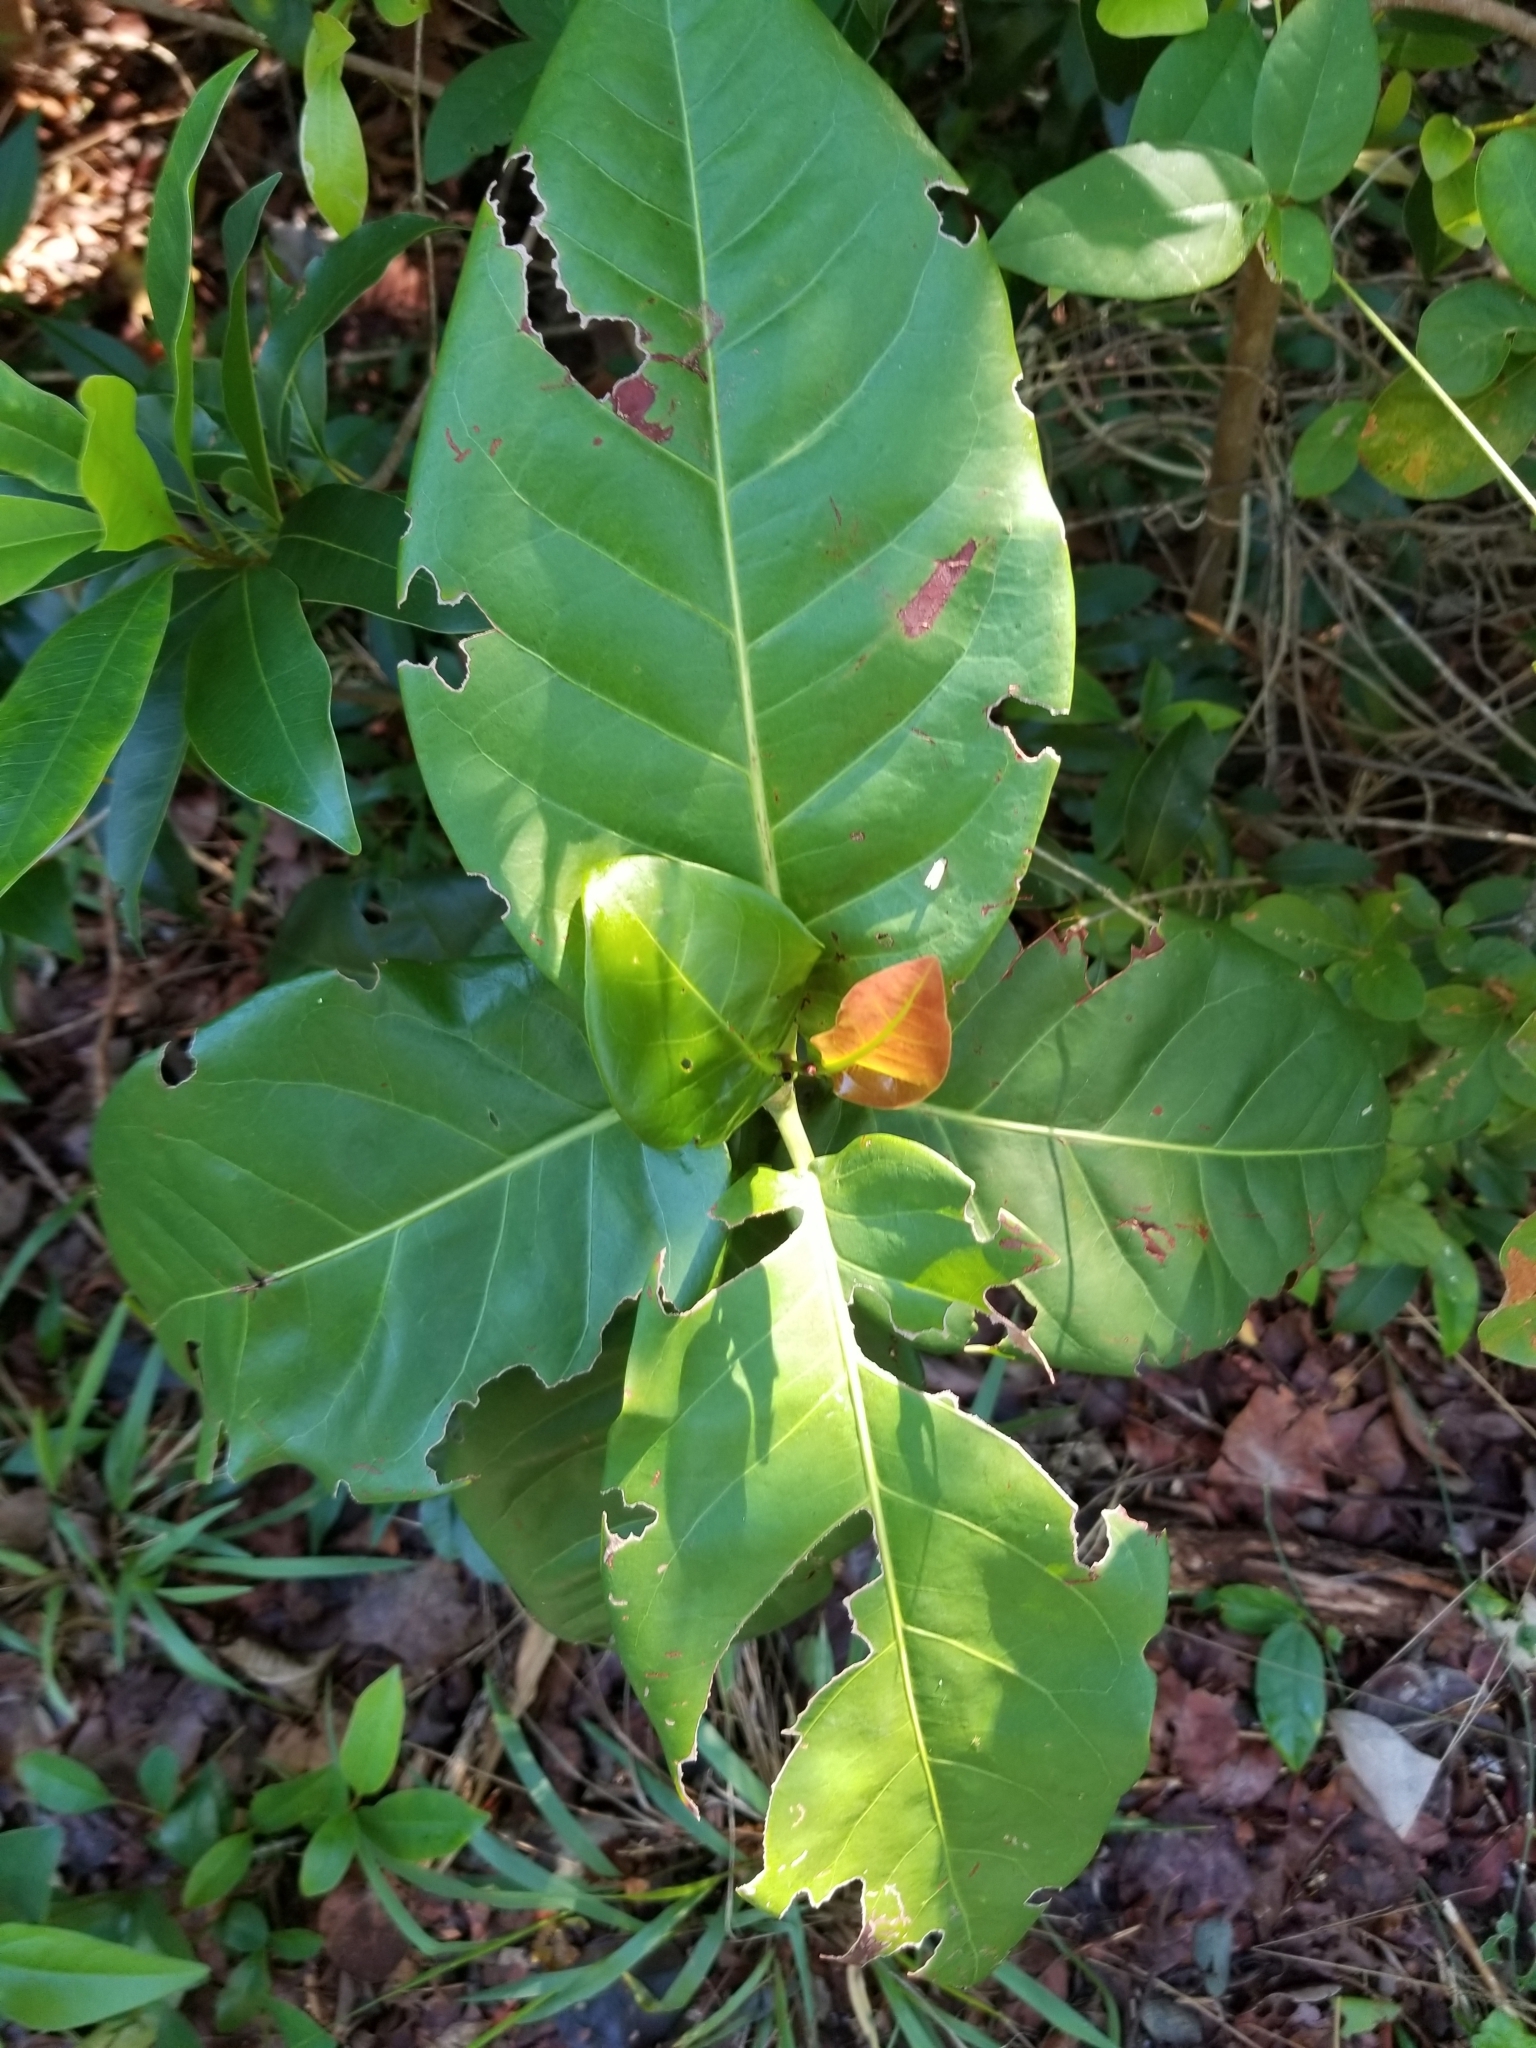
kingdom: Plantae
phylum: Tracheophyta
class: Magnoliopsida
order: Caryophyllales
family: Polygonaceae
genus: Coccoloba
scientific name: Coccoloba diversifolia
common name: Pigeon-plum
